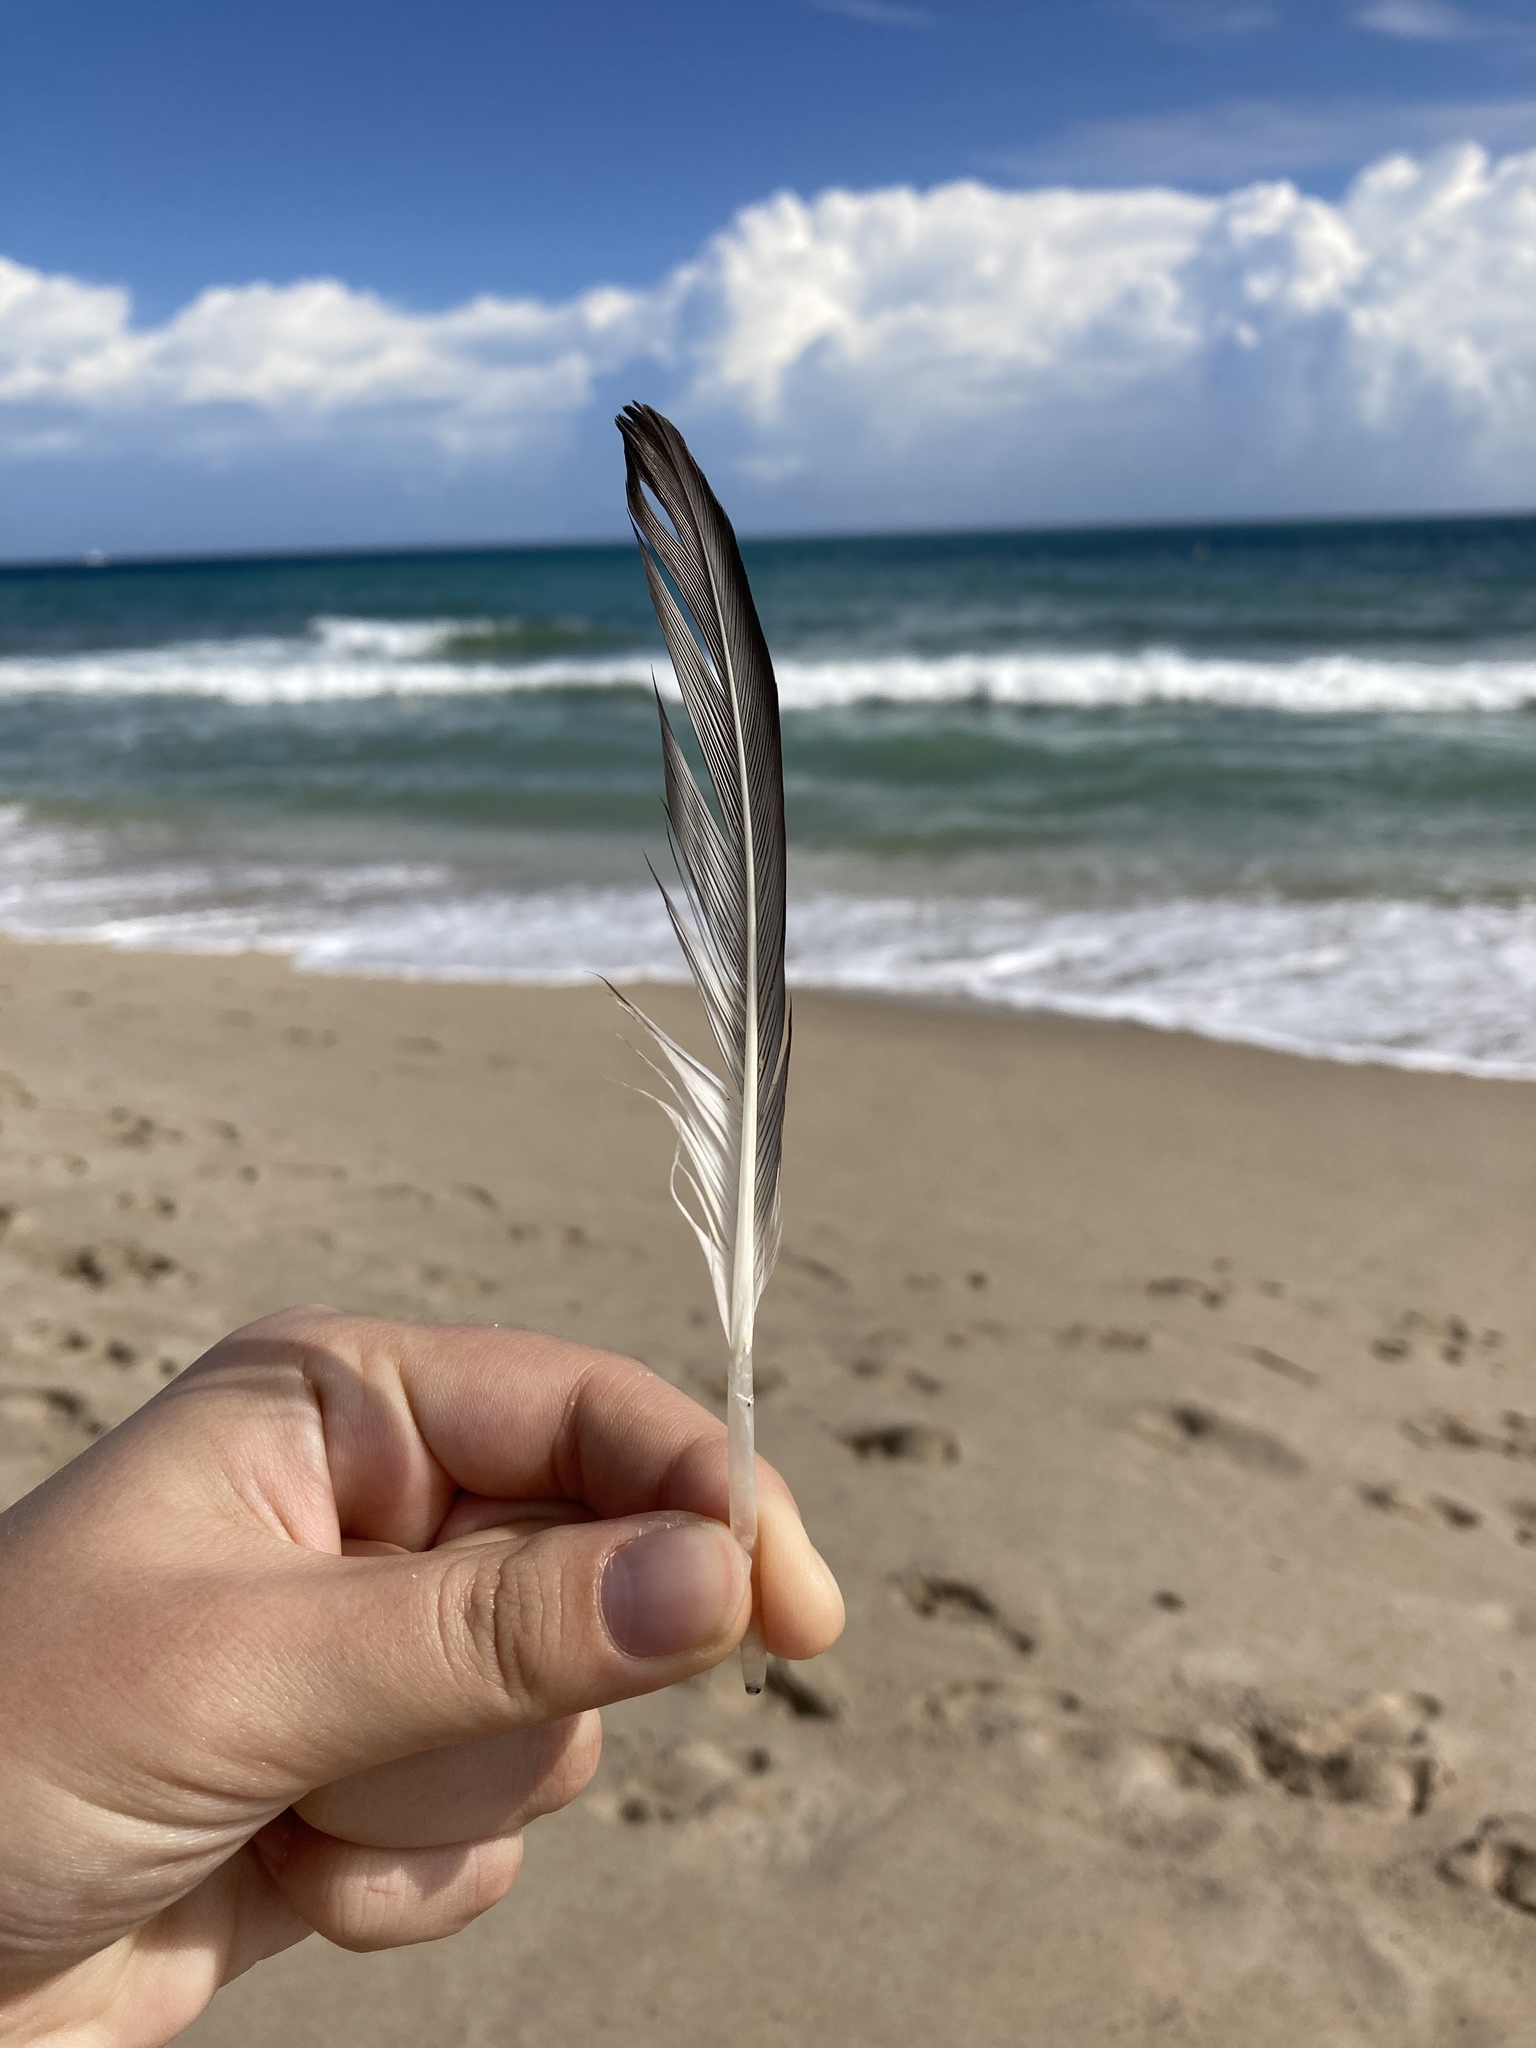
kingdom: Animalia
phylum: Chordata
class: Aves
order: Pelecaniformes
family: Pelecanidae
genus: Pelecanus
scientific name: Pelecanus erythrorhynchos
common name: American white pelican
